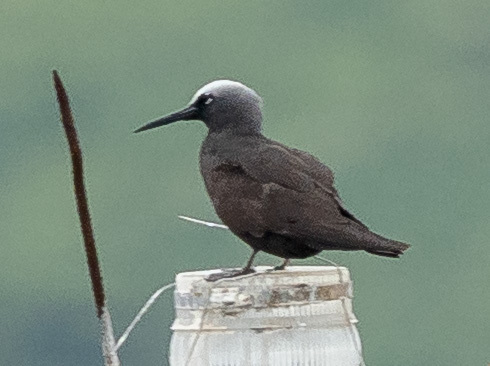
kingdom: Animalia
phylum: Chordata
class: Aves
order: Charadriiformes
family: Laridae
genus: Anous
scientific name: Anous minutus
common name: Black noddy
